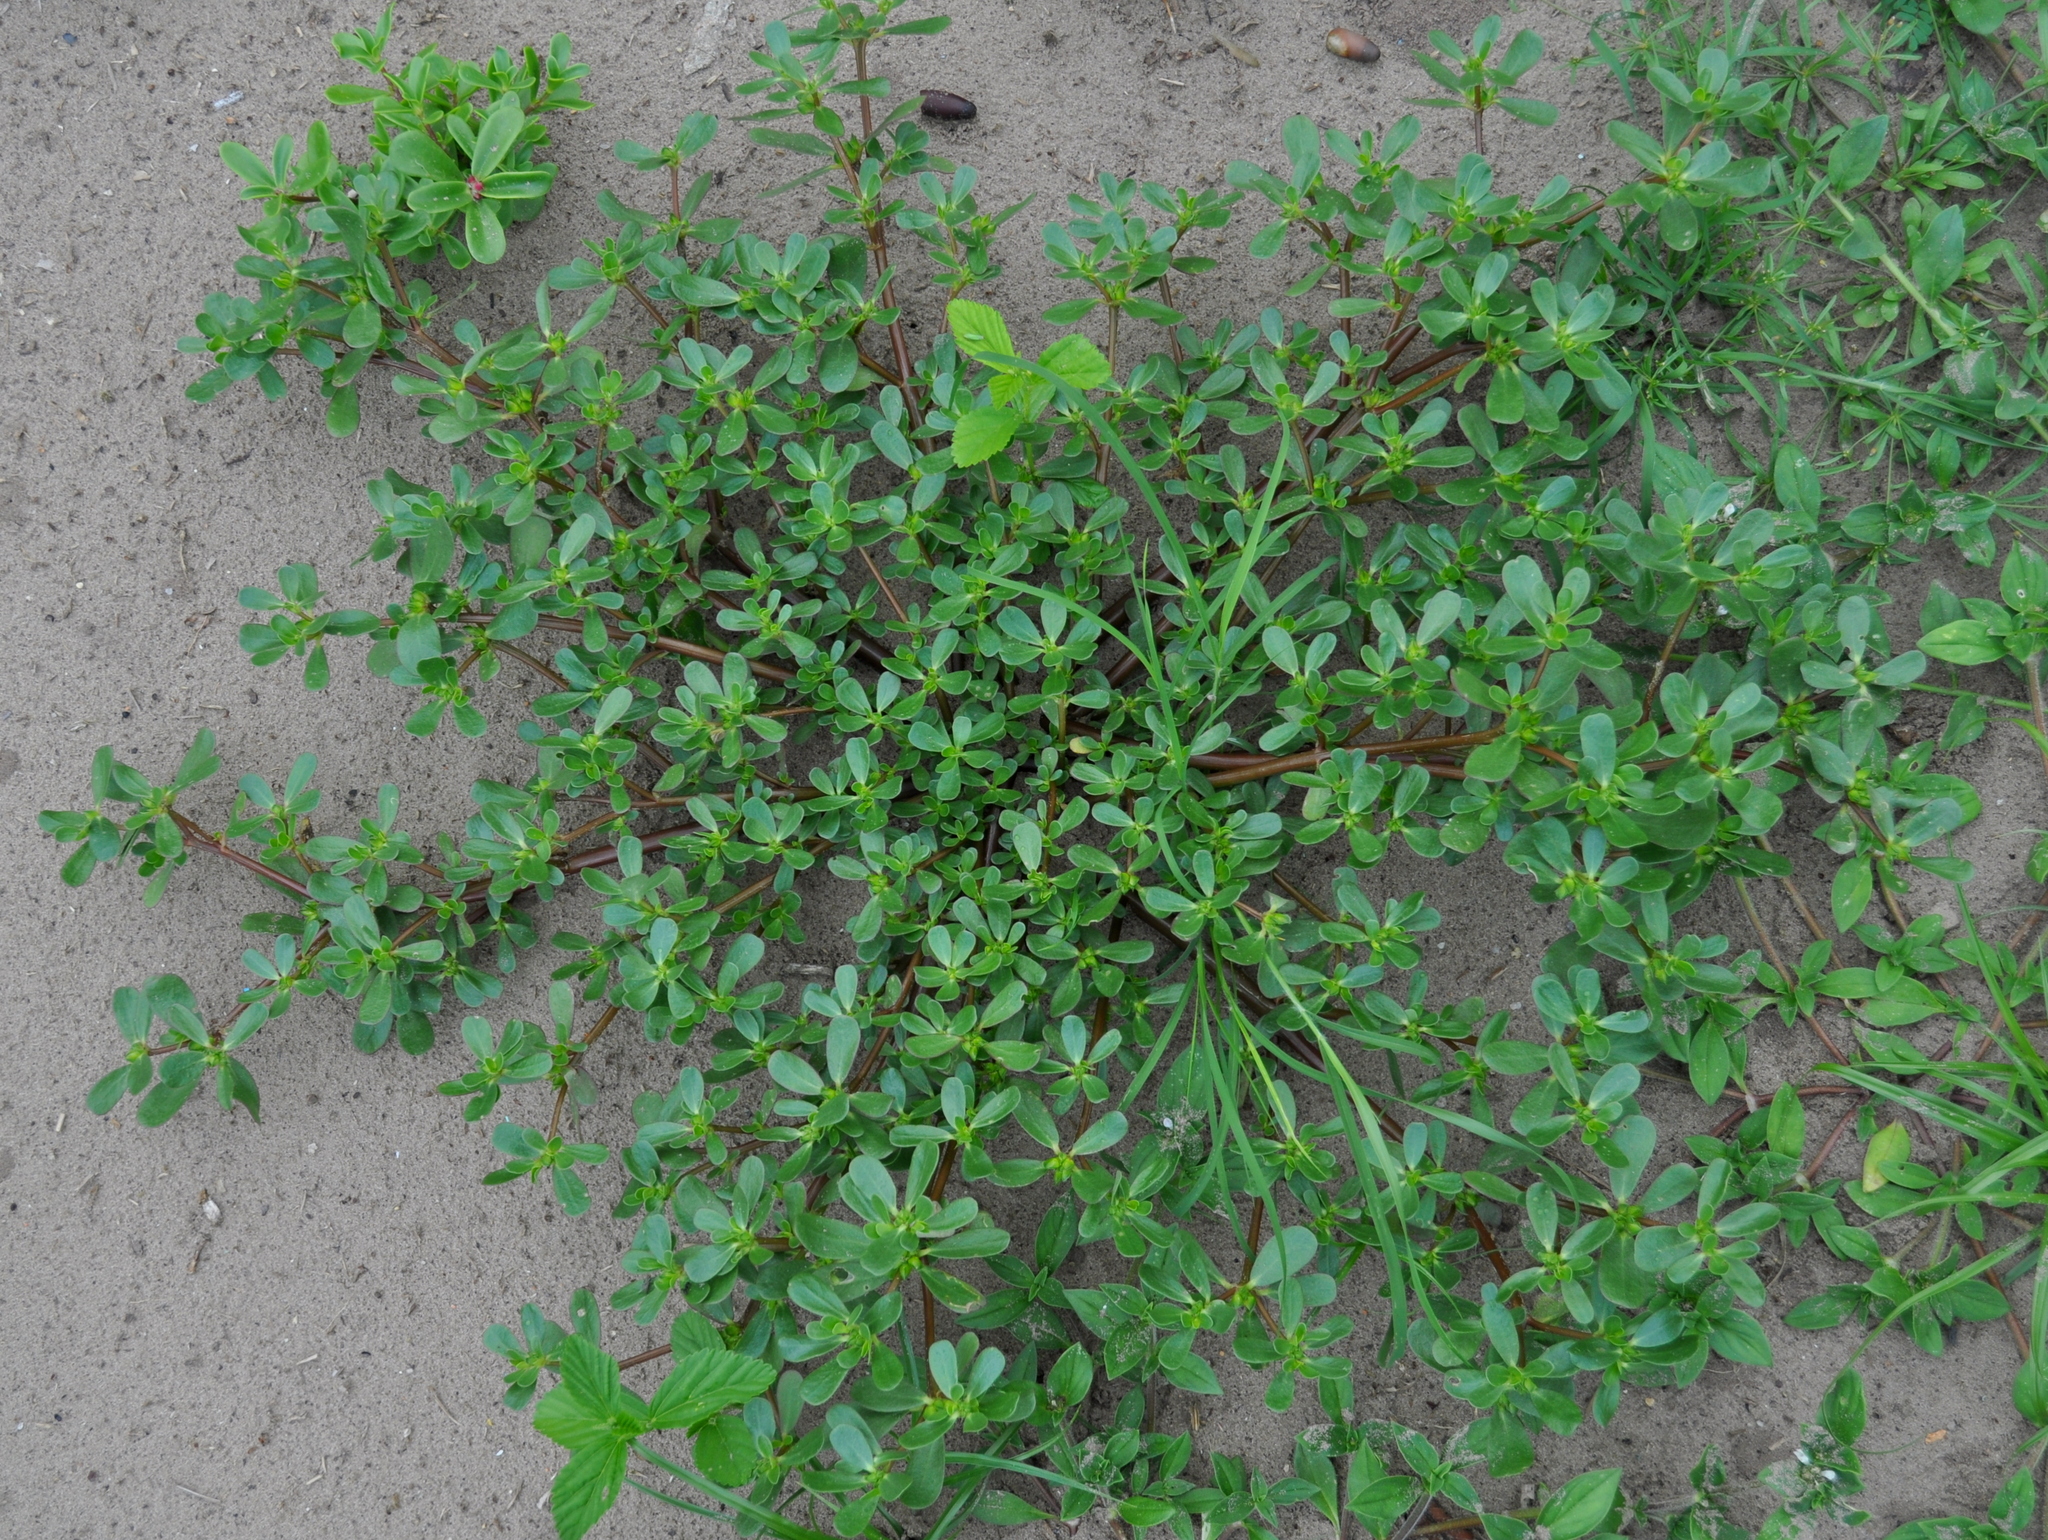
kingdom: Plantae
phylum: Tracheophyta
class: Magnoliopsida
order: Caryophyllales
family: Portulacaceae
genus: Portulaca
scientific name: Portulaca oleracea
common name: Common purslane
